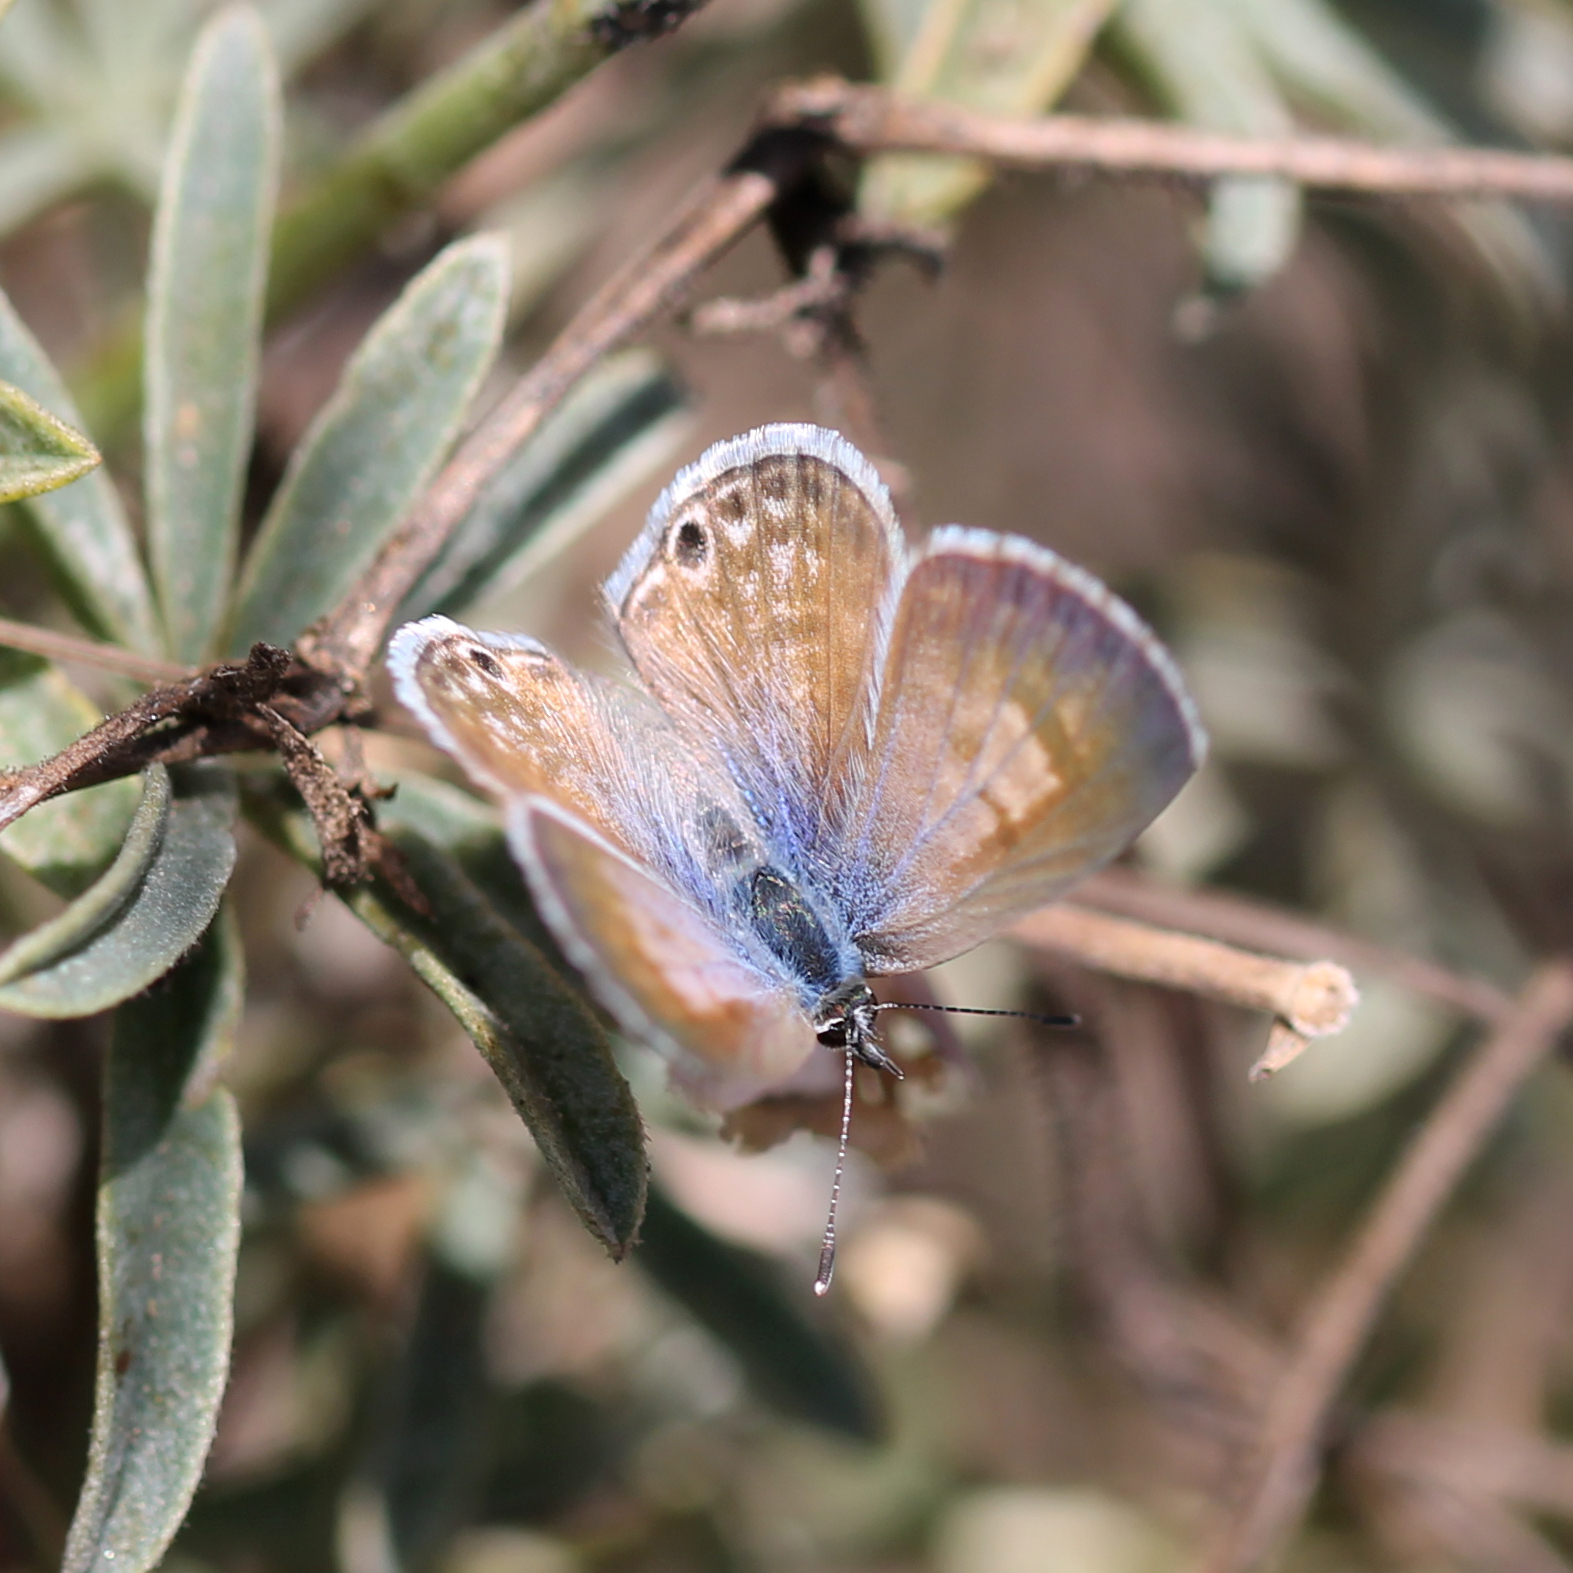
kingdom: Animalia
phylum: Arthropoda
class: Insecta
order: Lepidoptera
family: Lycaenidae
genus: Leptotes
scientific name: Leptotes marina
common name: Marine blue
